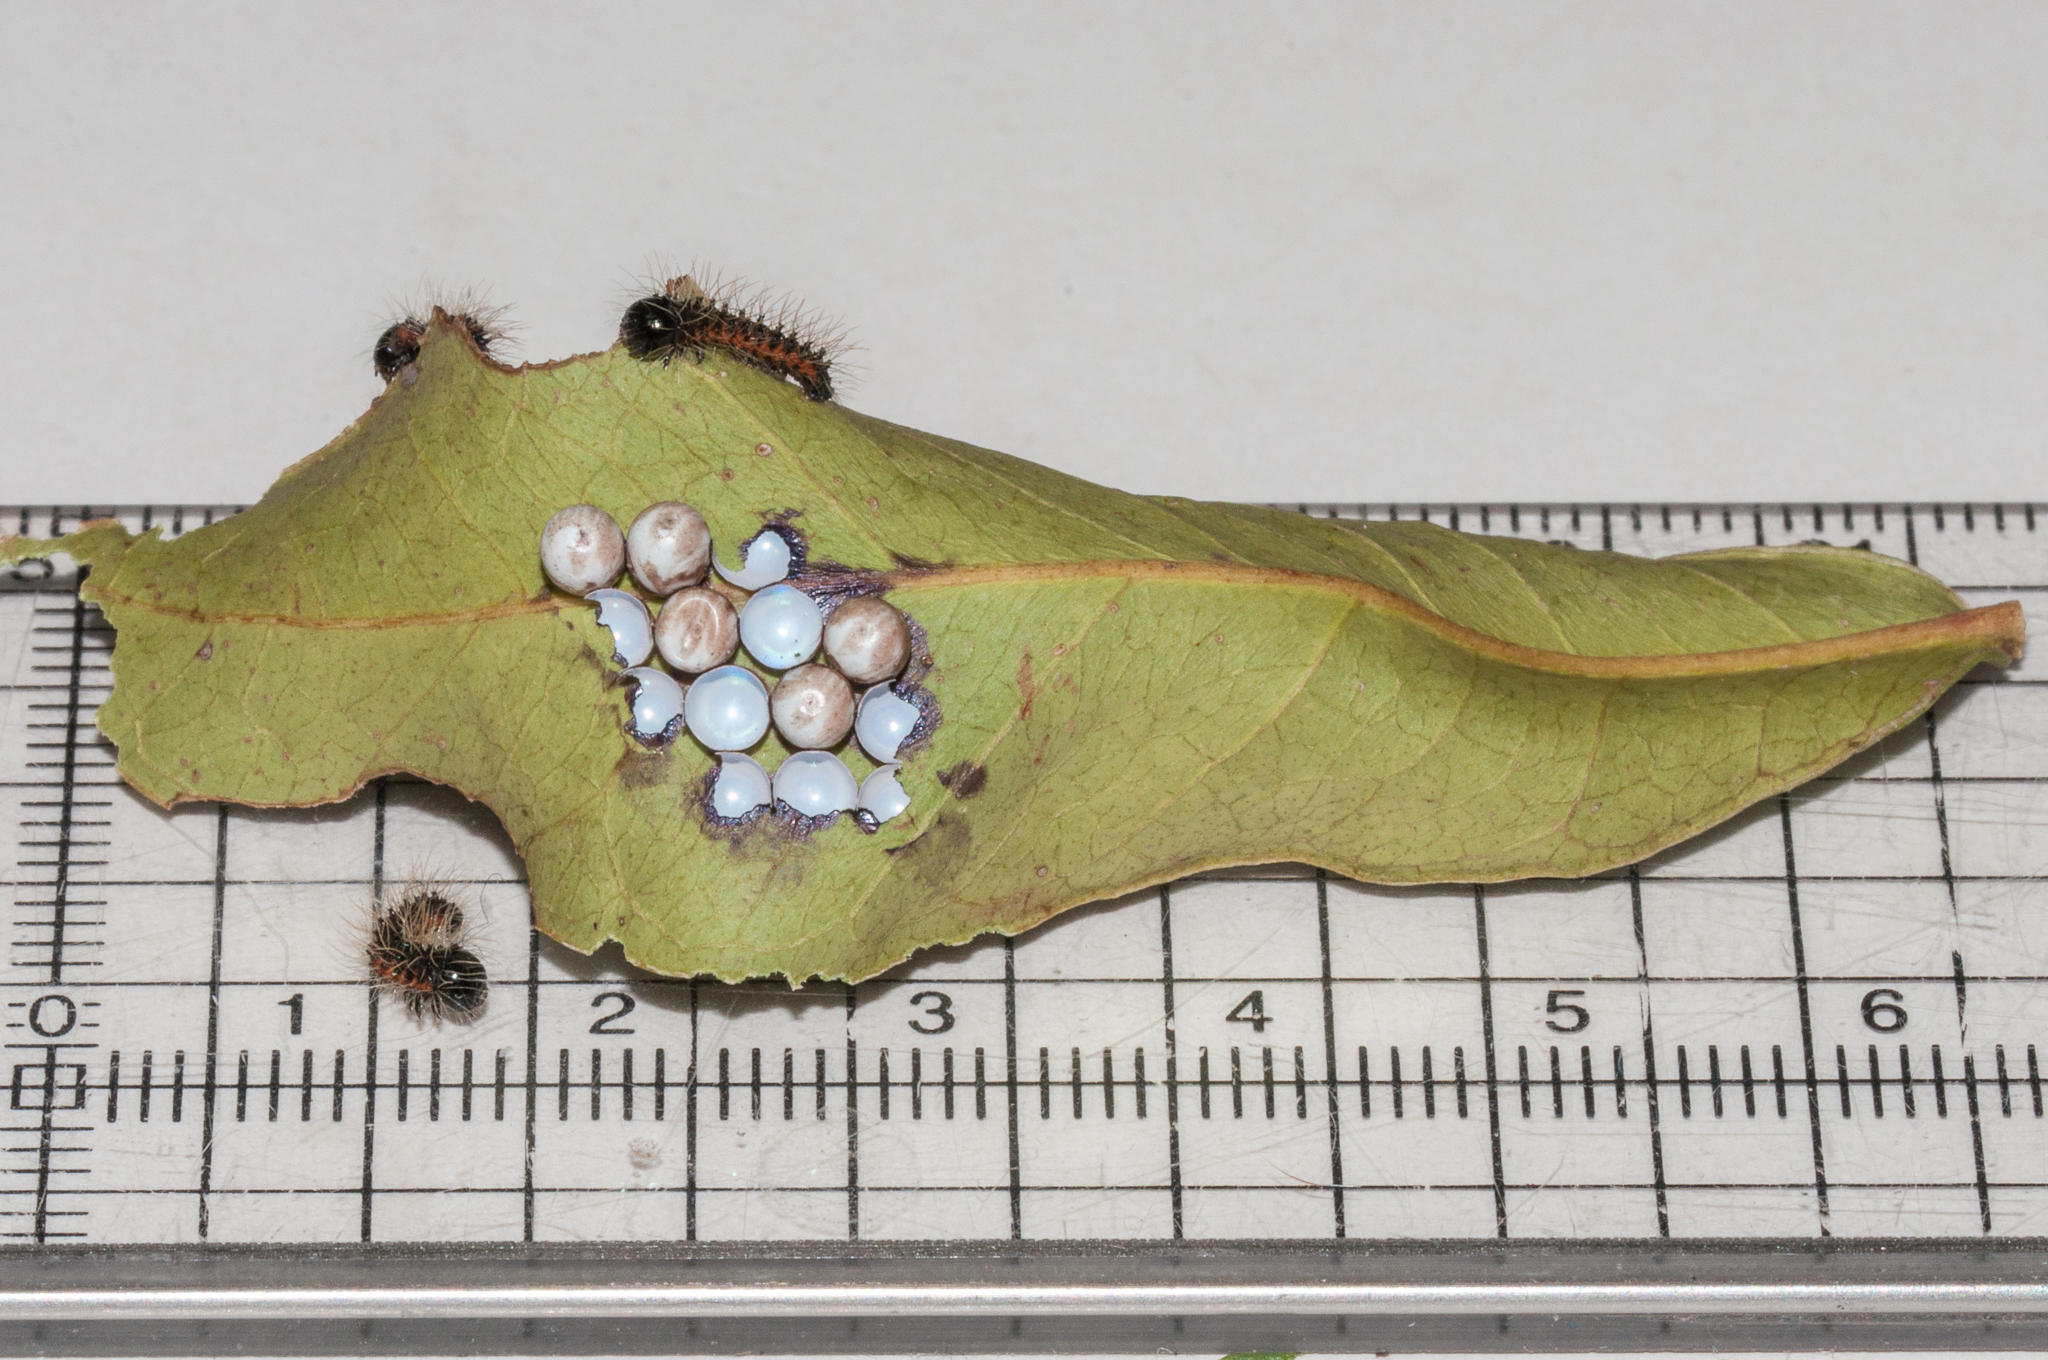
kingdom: Animalia
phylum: Arthropoda
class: Insecta
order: Lepidoptera
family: Saturniidae
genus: Nudaurelia
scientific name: Nudaurelia cytherea
